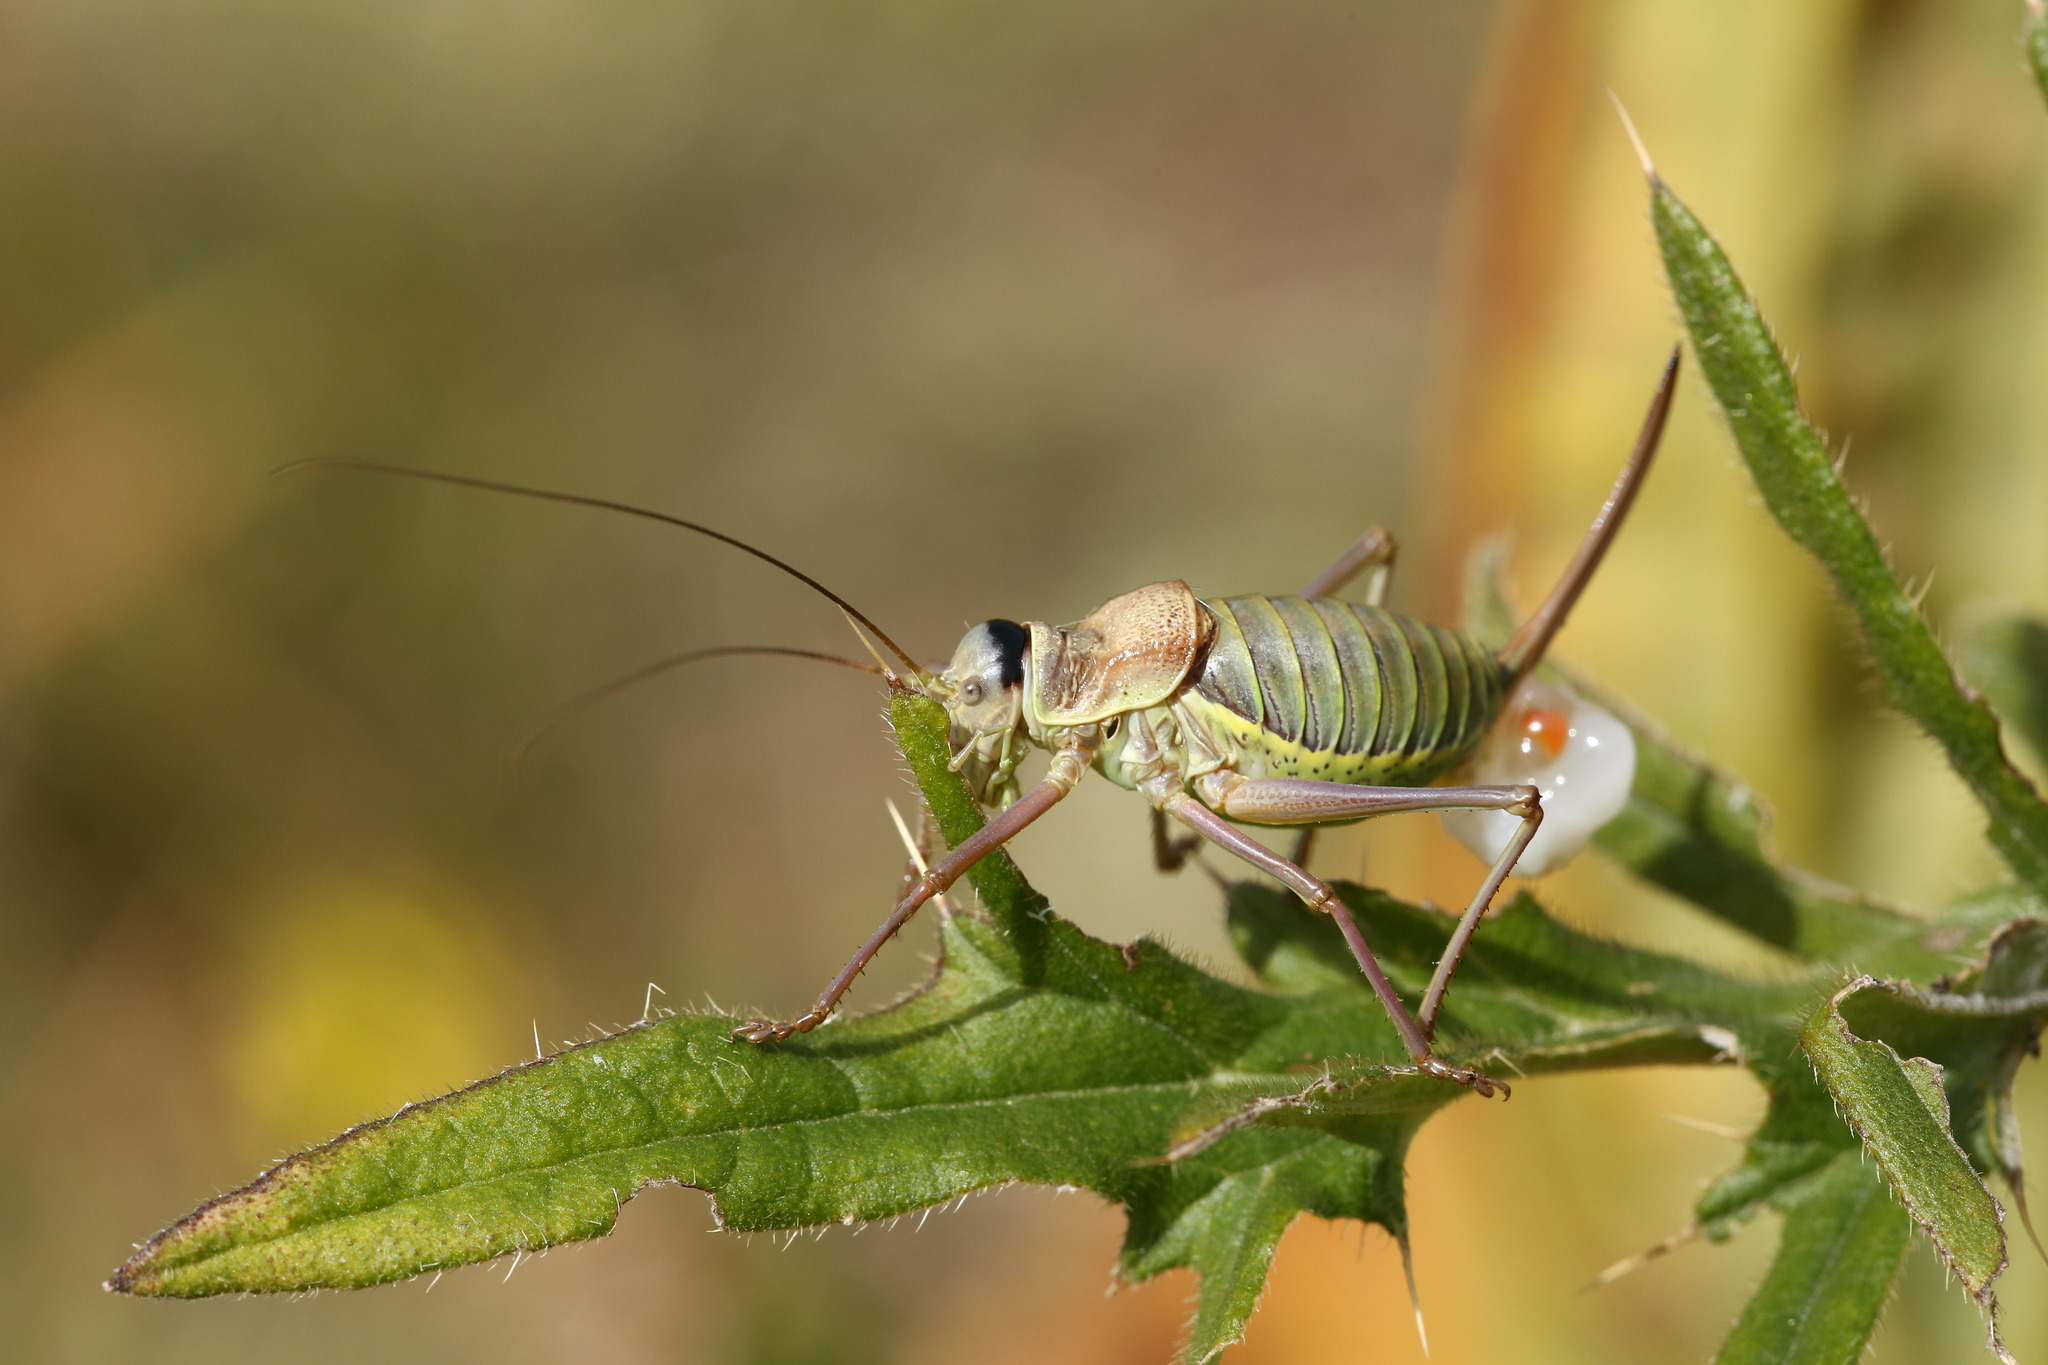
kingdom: Animalia
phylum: Arthropoda
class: Insecta
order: Orthoptera
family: Tettigoniidae
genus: Ephippiger
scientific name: Ephippiger diurnus
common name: Western saddle bush-cricket
